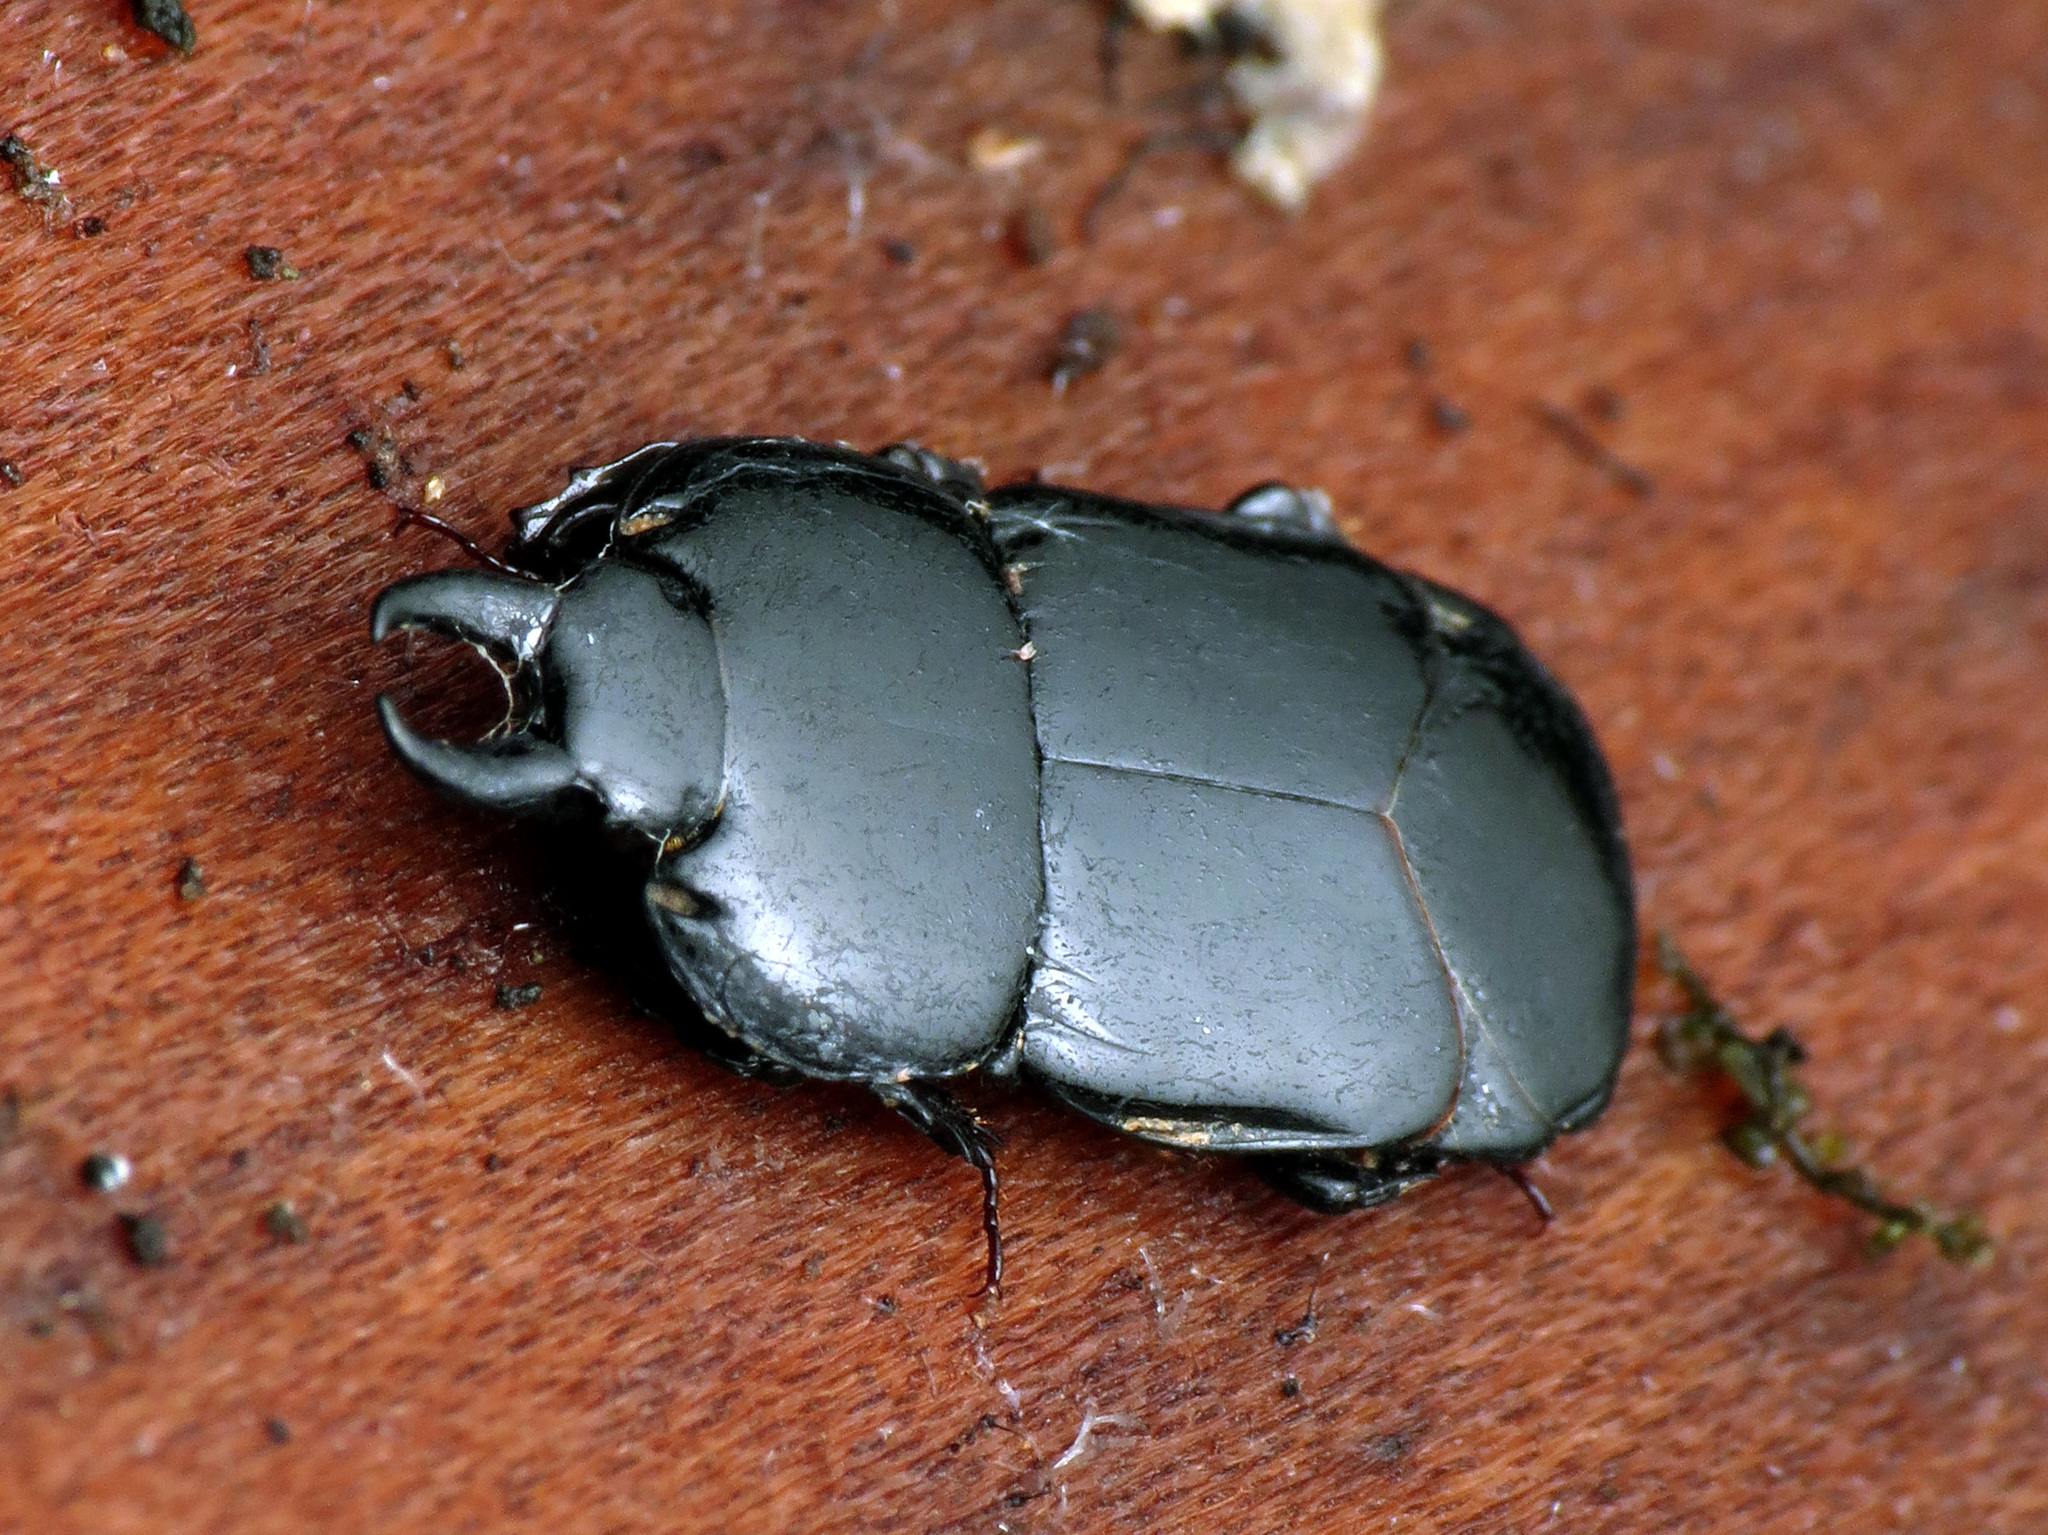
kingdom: Animalia
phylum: Arthropoda
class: Insecta
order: Coleoptera
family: Histeridae
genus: Hololepta
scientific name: Hololepta aequalis
